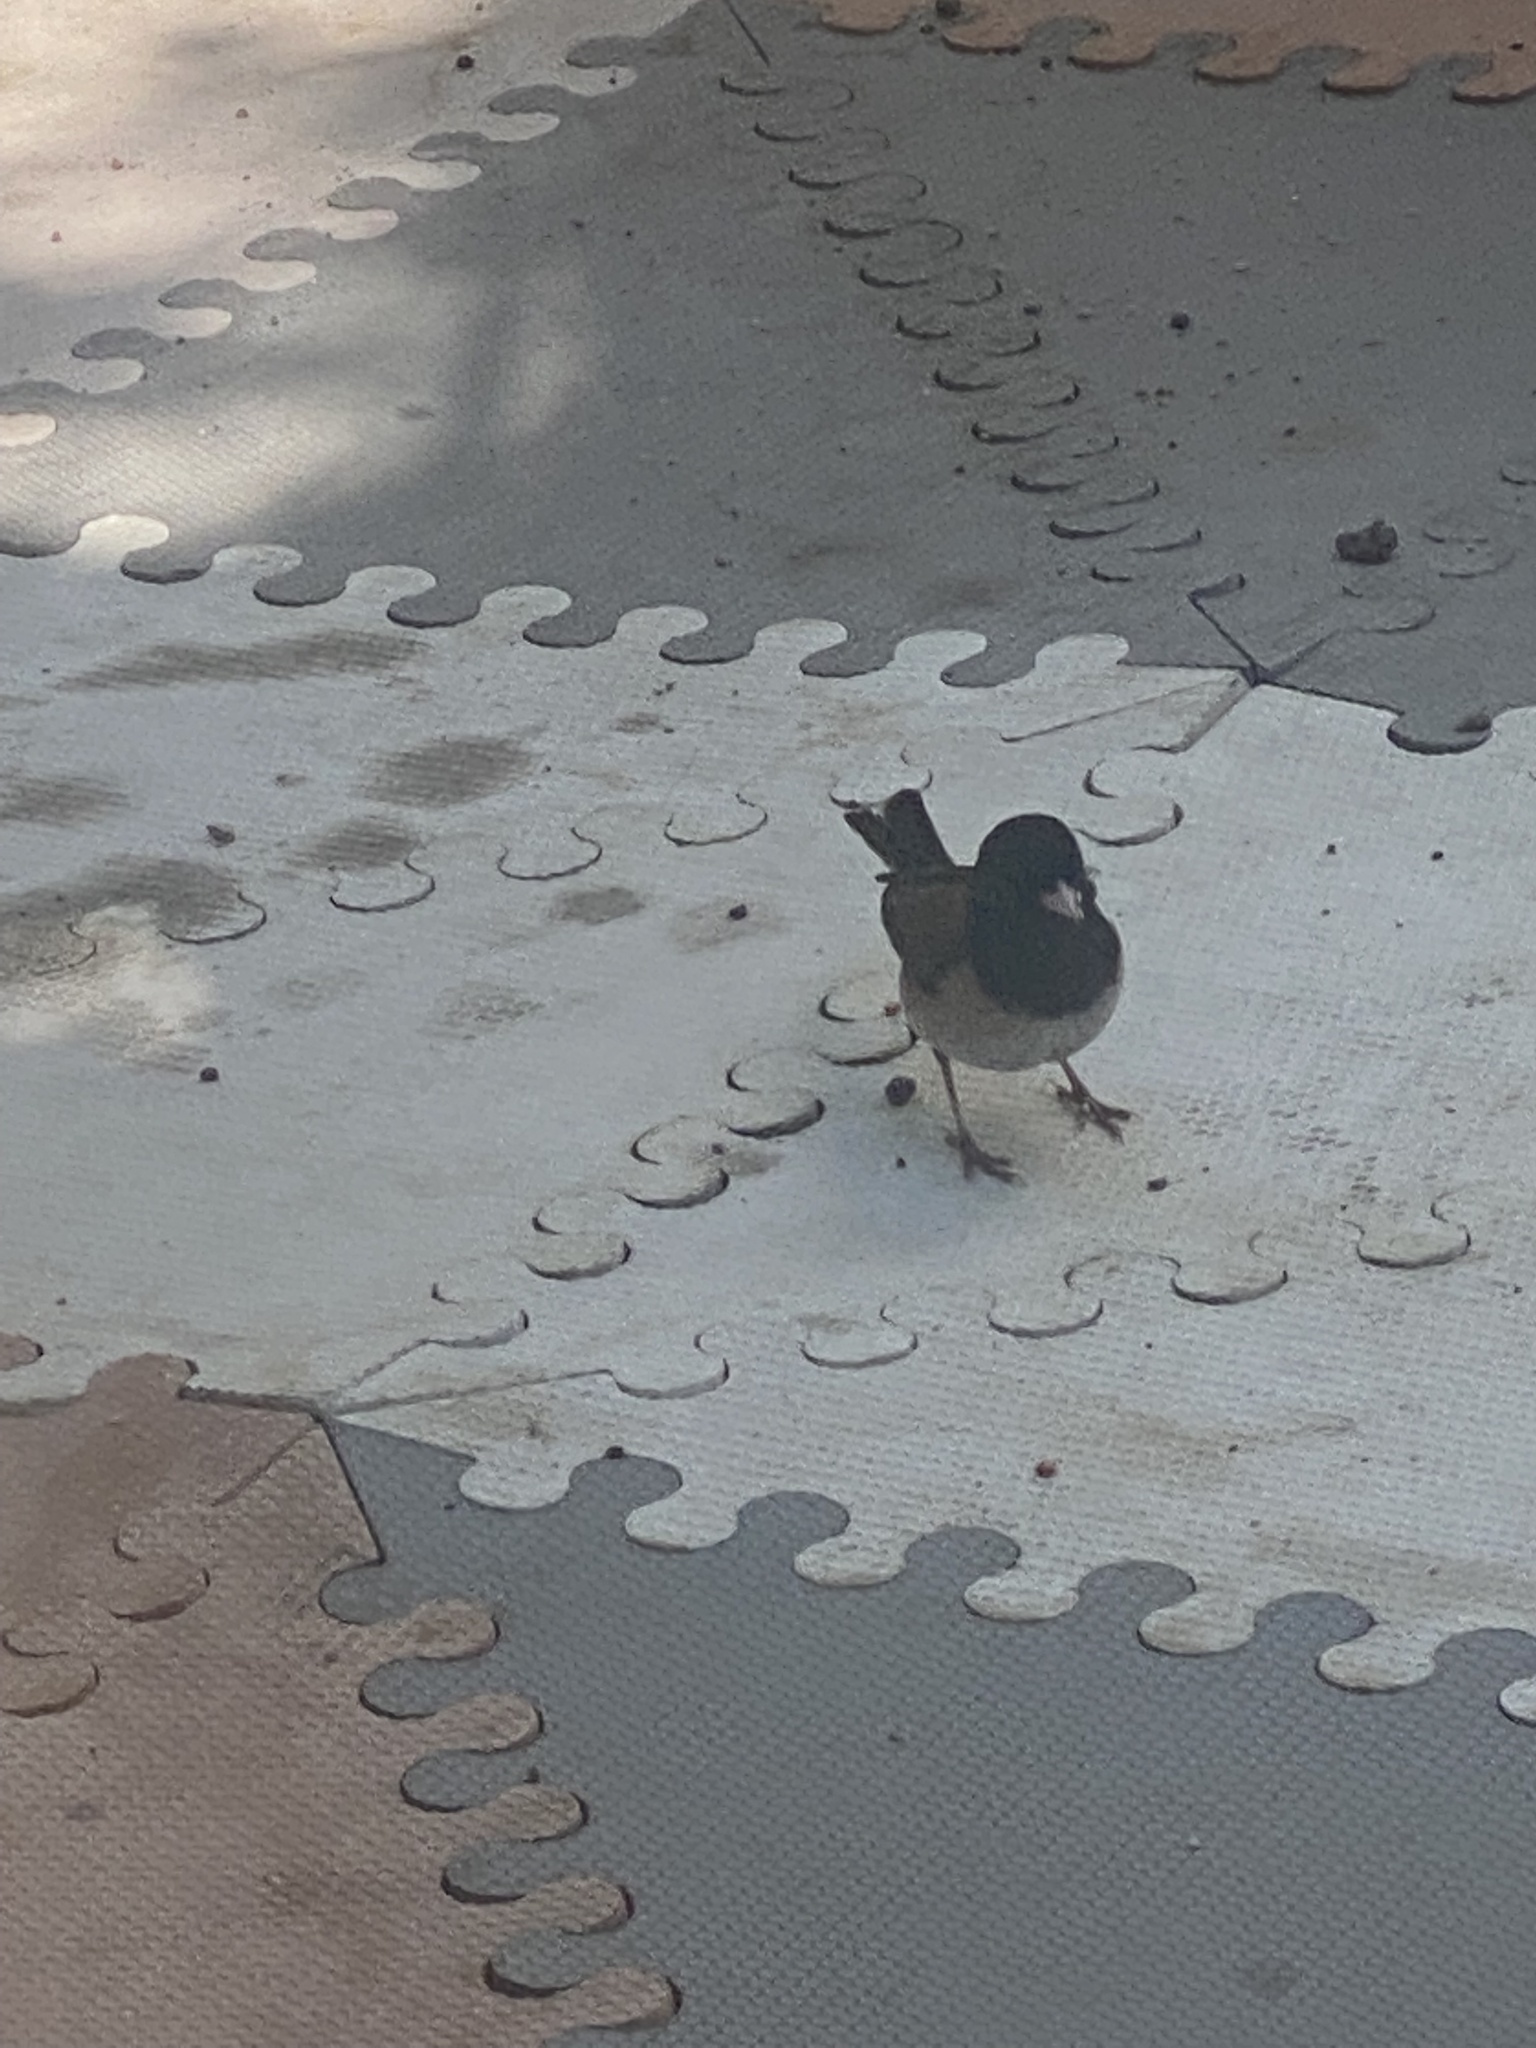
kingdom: Animalia
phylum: Chordata
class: Aves
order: Passeriformes
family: Passerellidae
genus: Junco
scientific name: Junco hyemalis
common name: Dark-eyed junco
